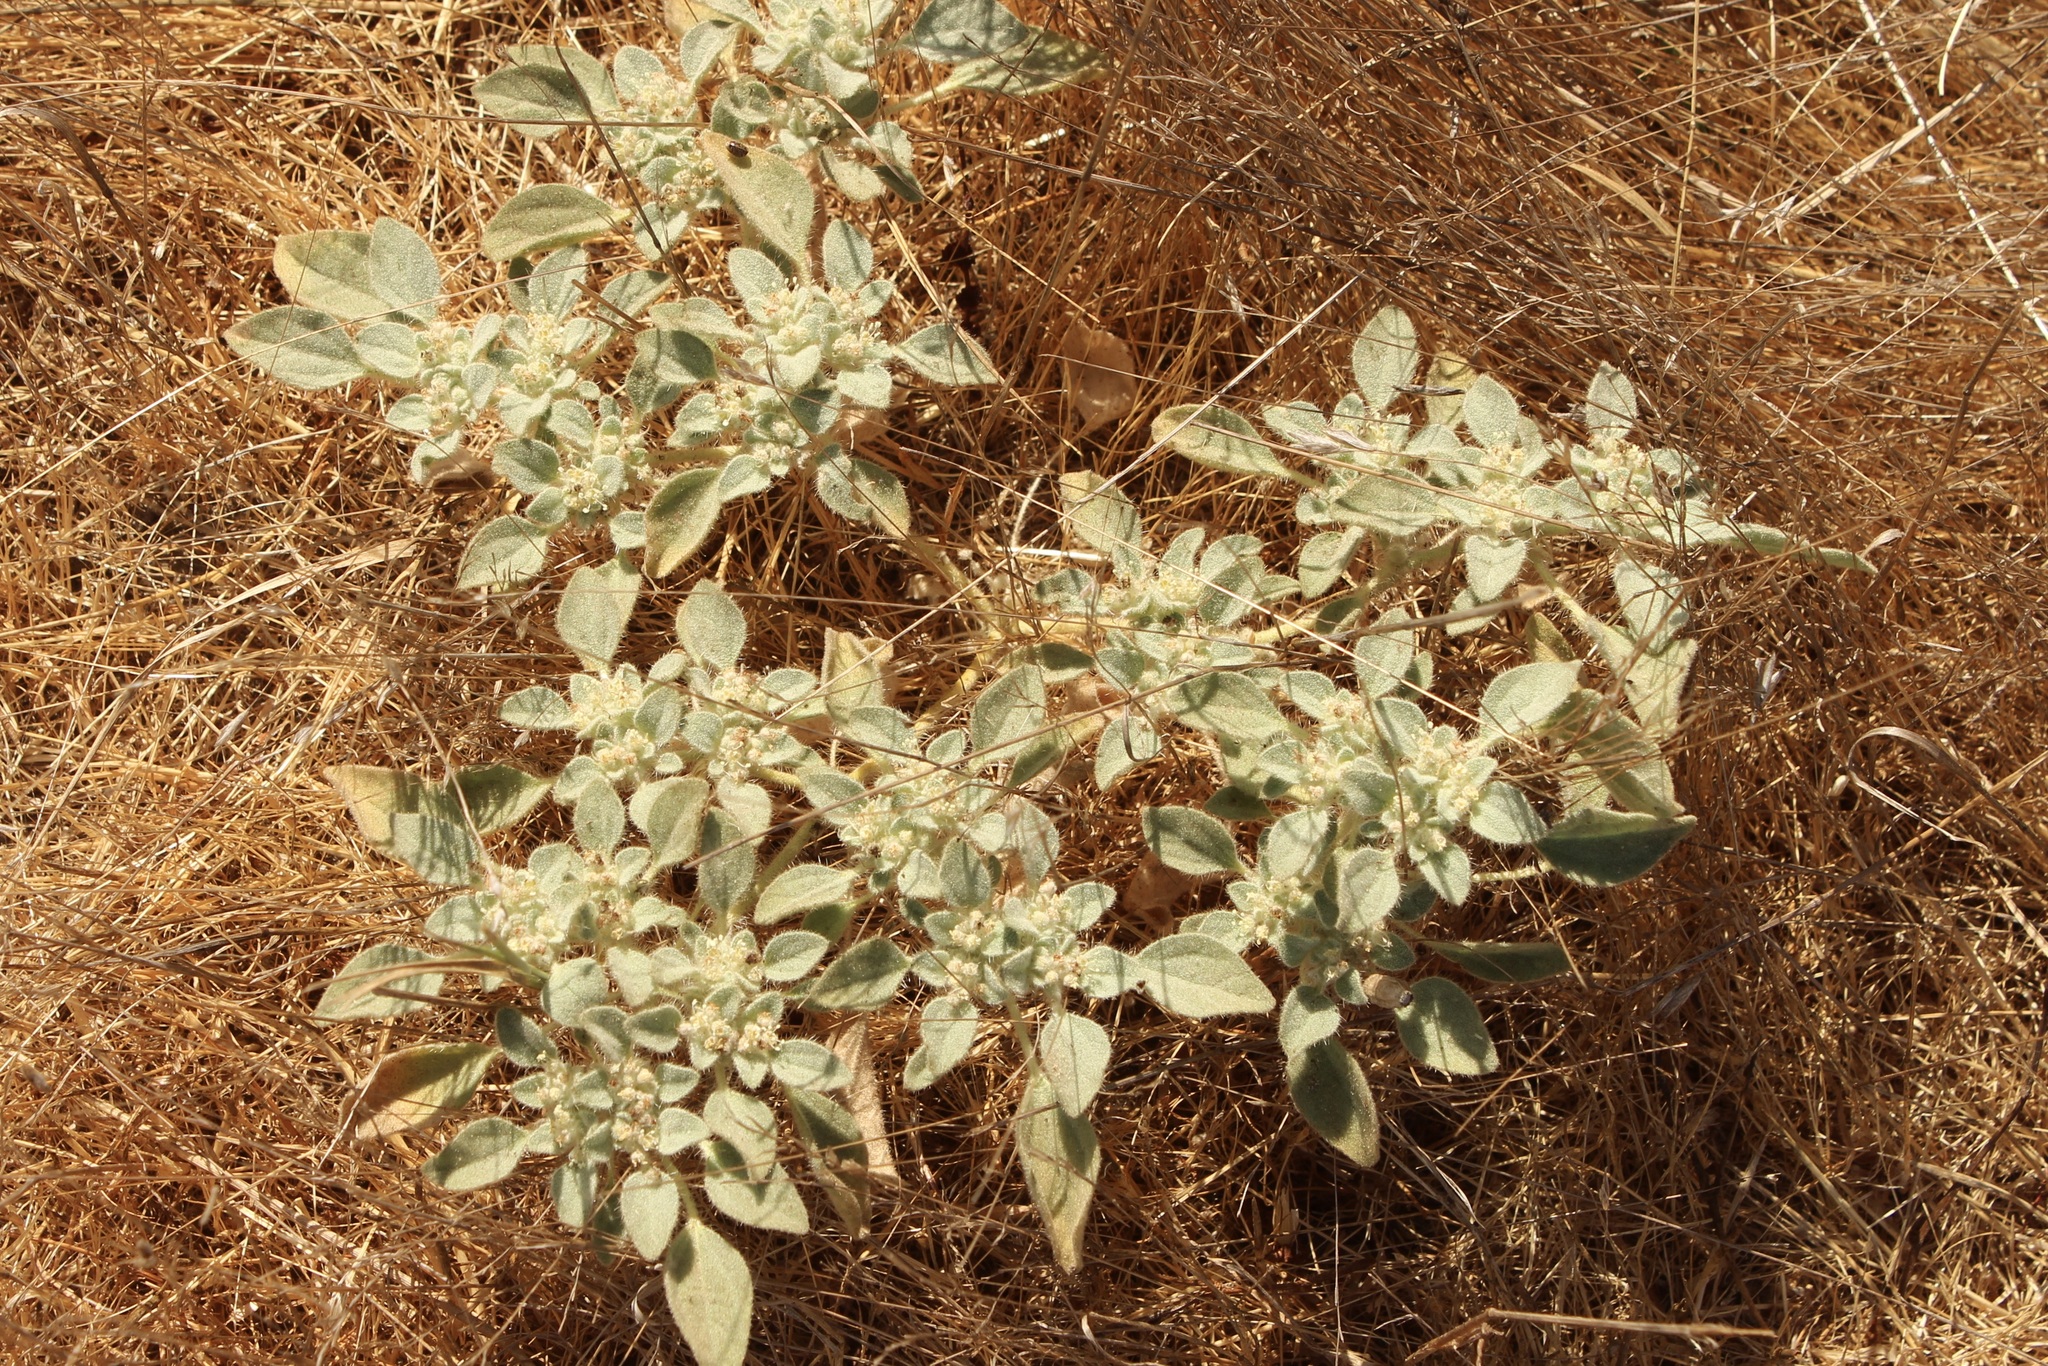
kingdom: Plantae
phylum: Tracheophyta
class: Magnoliopsida
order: Malpighiales
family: Euphorbiaceae
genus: Croton
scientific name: Croton setiger
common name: Dove weed
